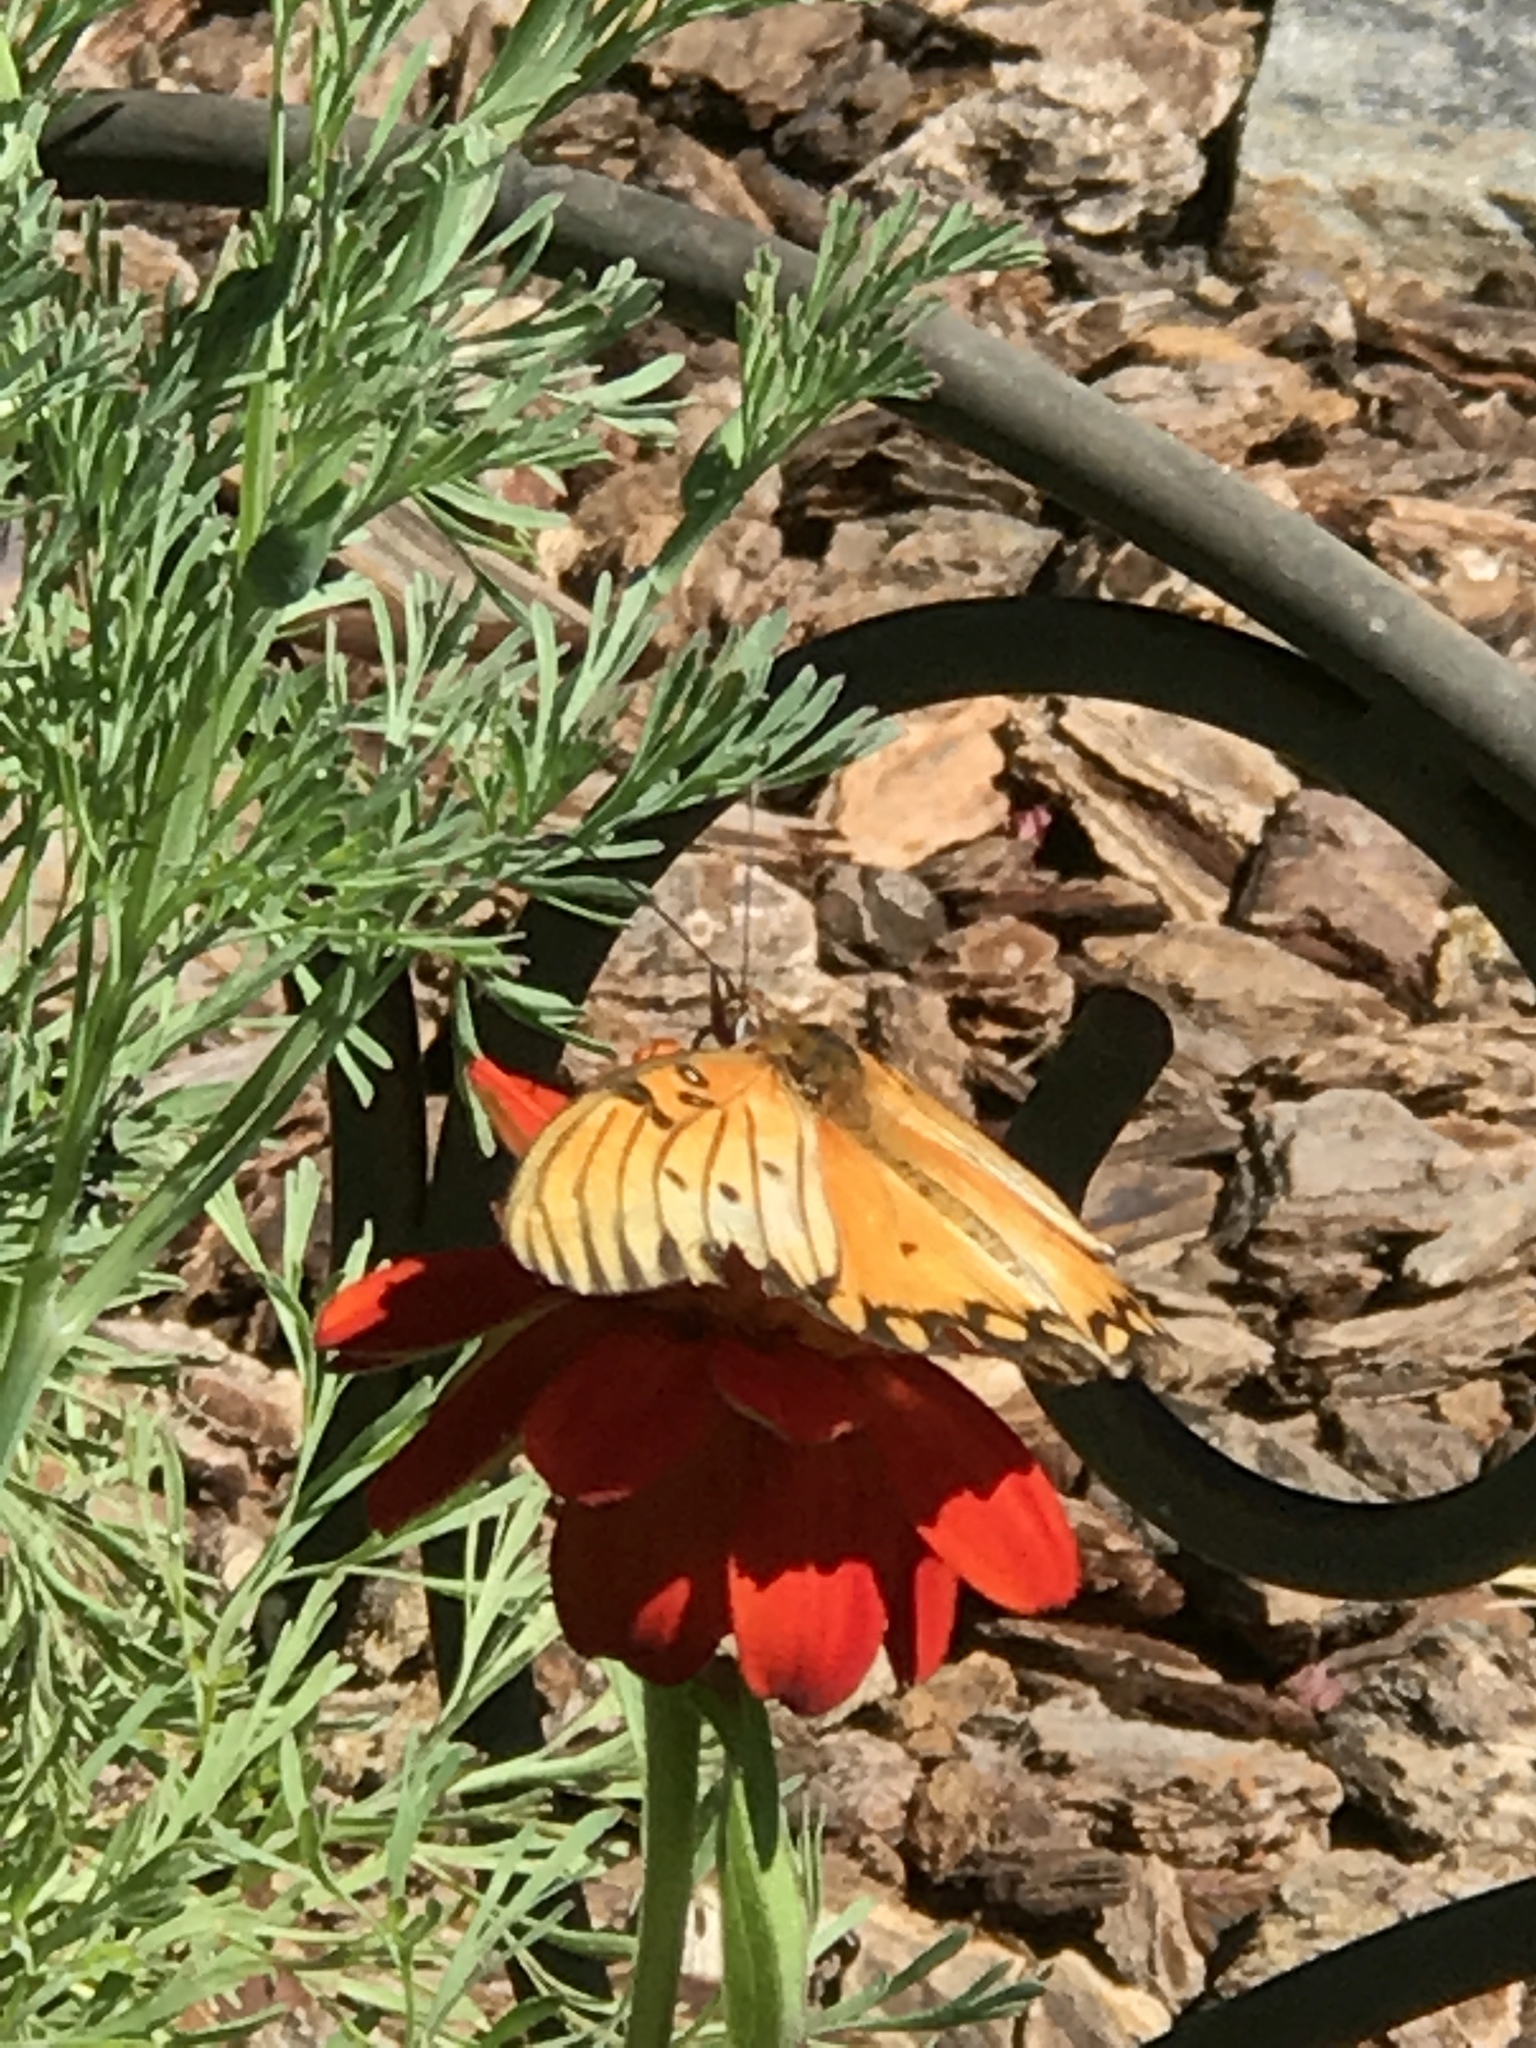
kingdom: Animalia
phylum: Arthropoda
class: Insecta
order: Lepidoptera
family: Nymphalidae
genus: Dione
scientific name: Dione vanillae
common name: Gulf fritillary
